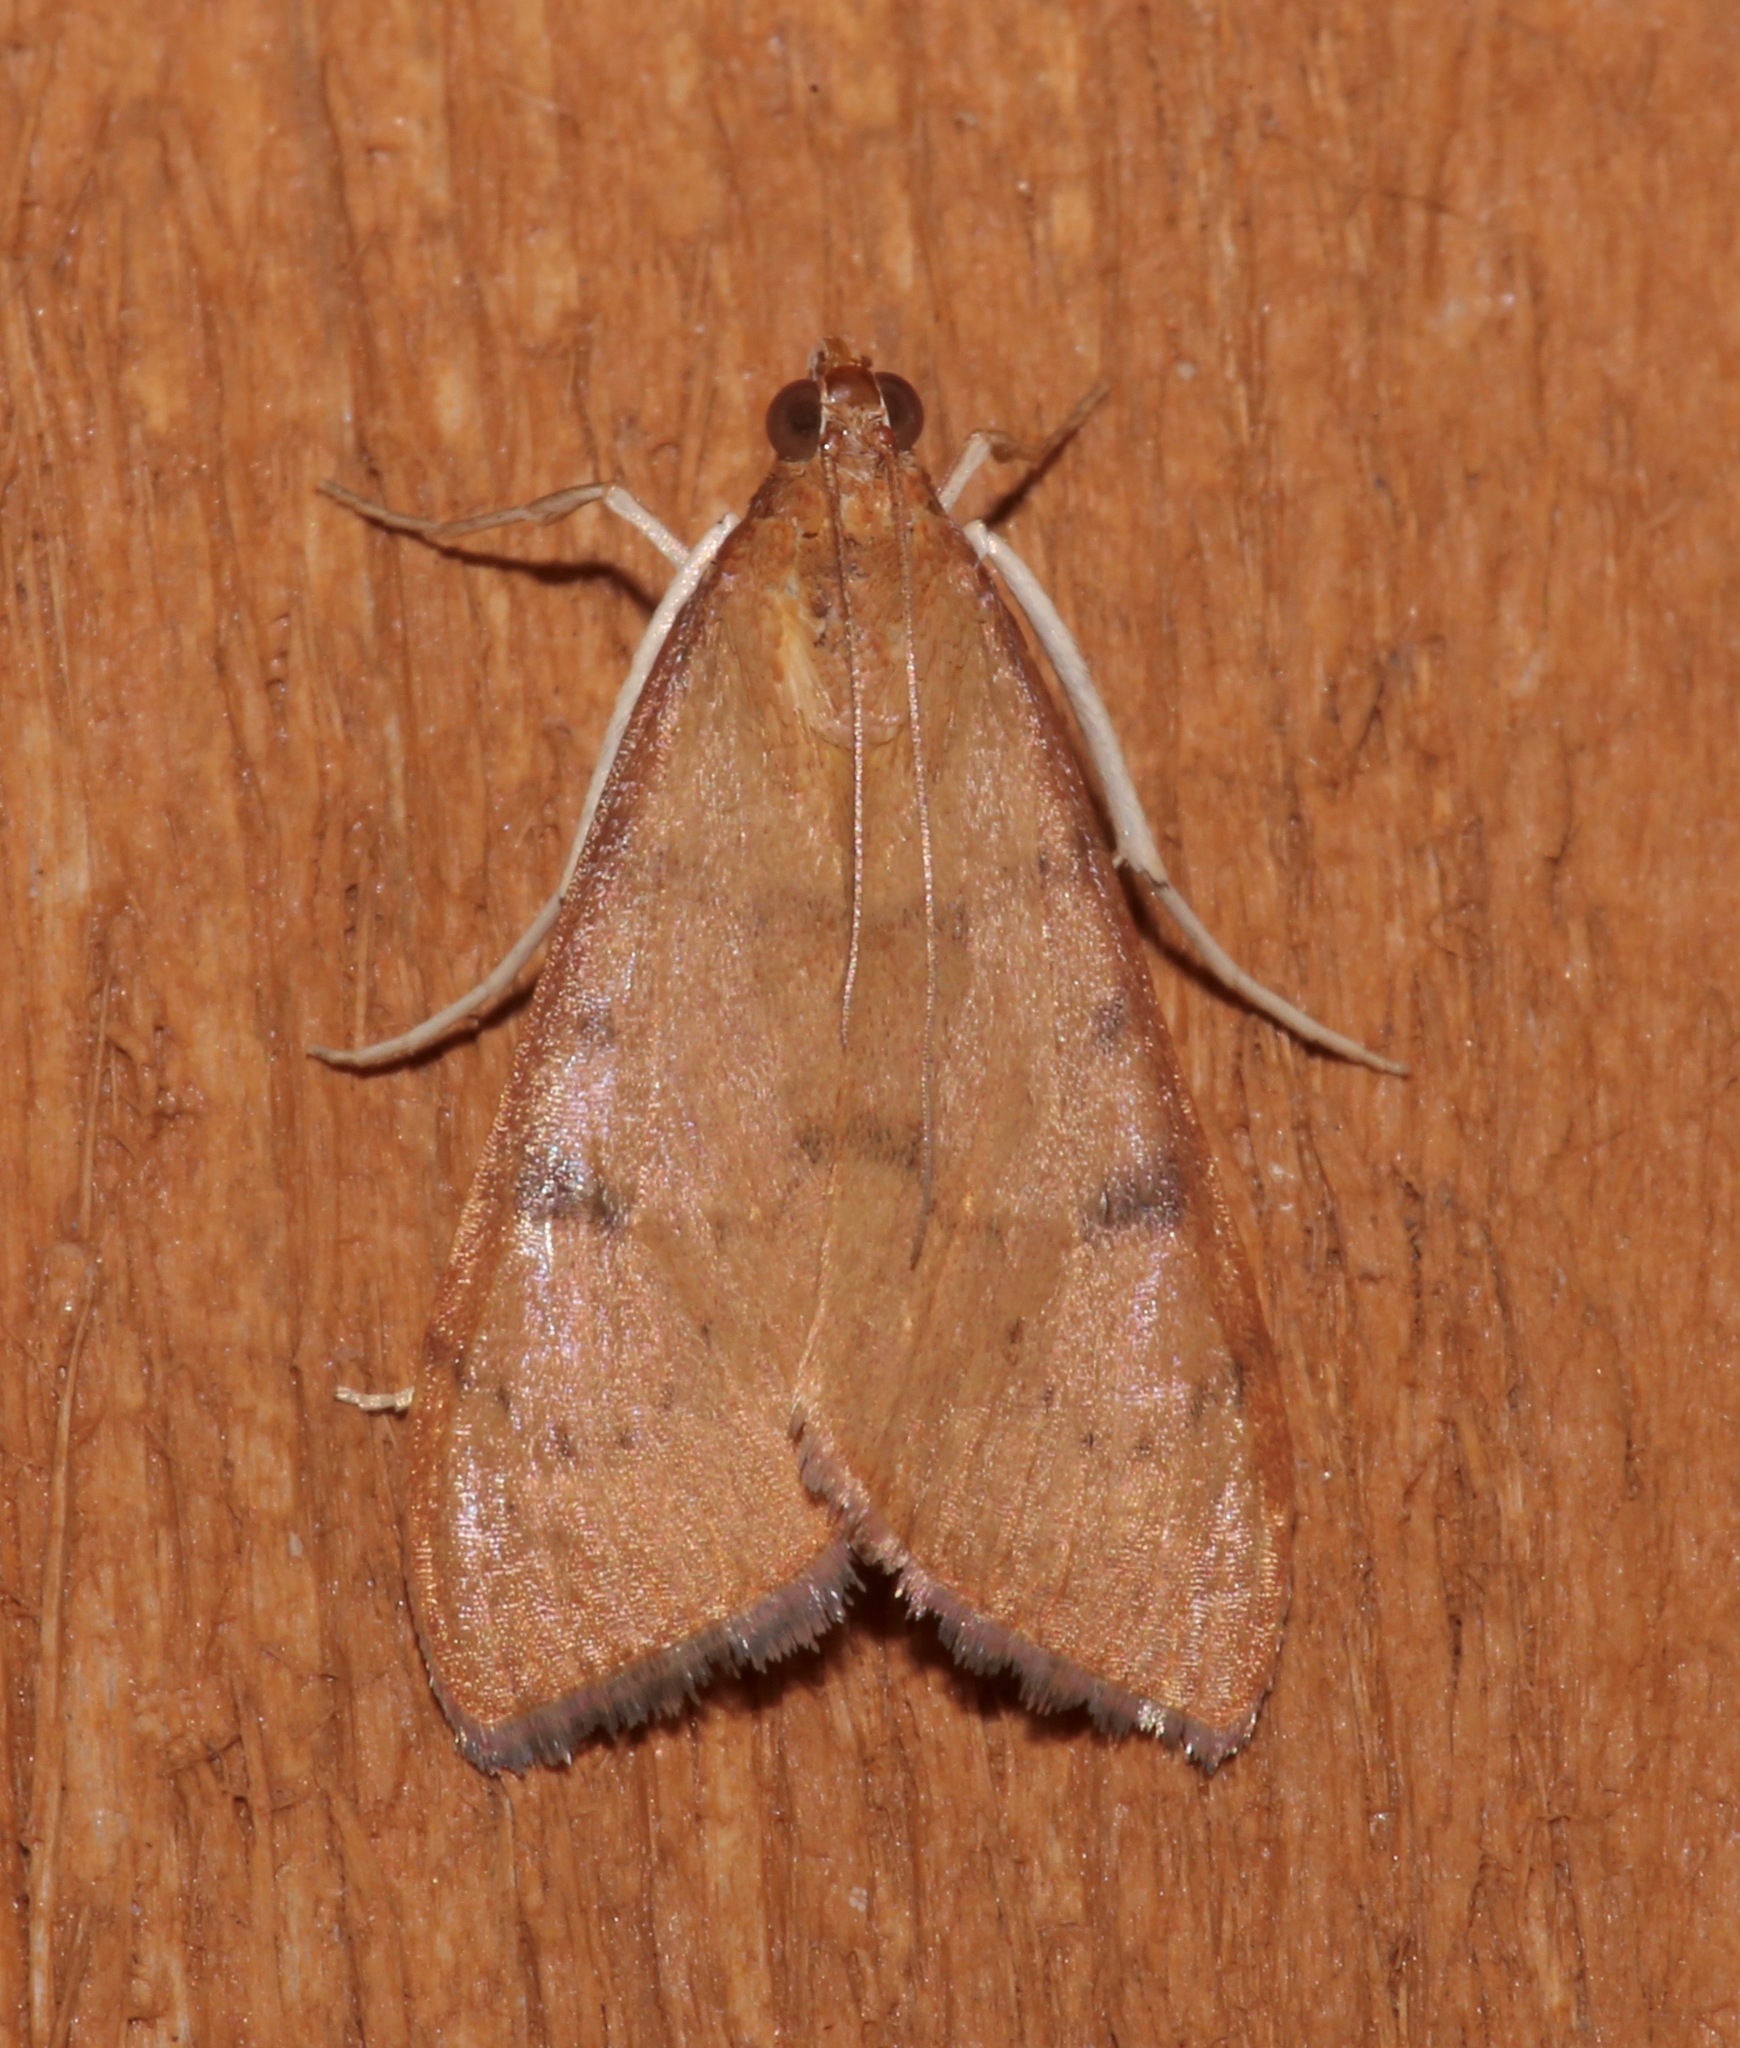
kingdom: Animalia
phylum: Arthropoda
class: Insecta
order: Lepidoptera
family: Crambidae
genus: Uresiphita
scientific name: Uresiphita reversalis
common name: Genista broom moth
